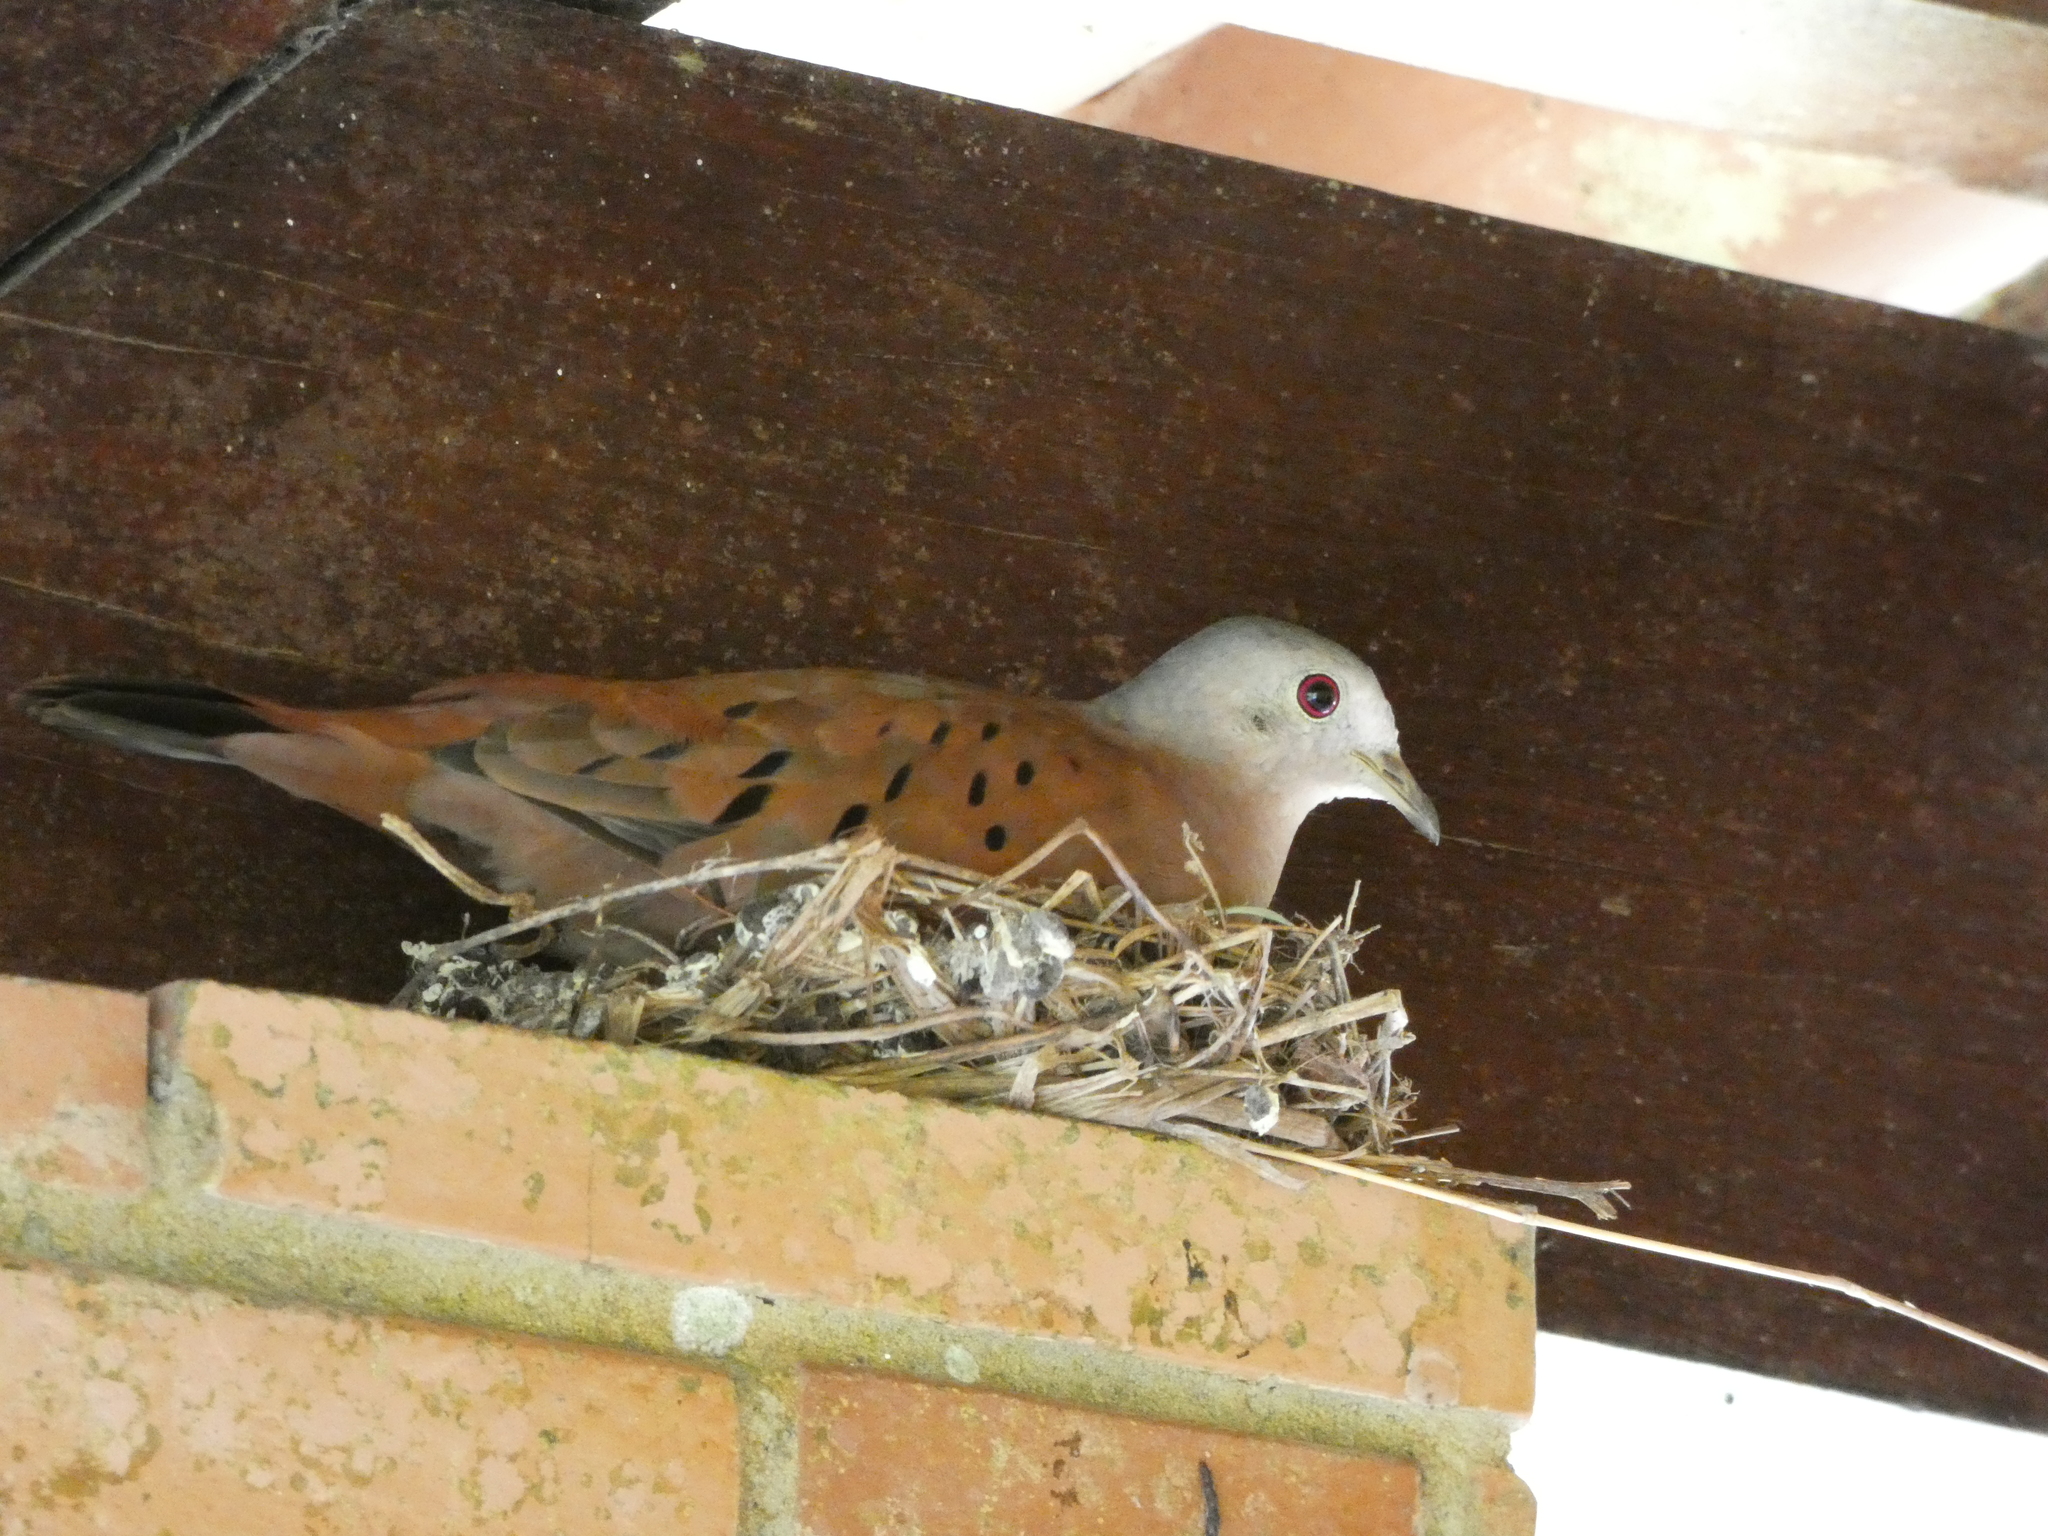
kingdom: Animalia
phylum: Chordata
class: Aves
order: Columbiformes
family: Columbidae
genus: Columbina
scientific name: Columbina talpacoti
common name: Ruddy ground dove
